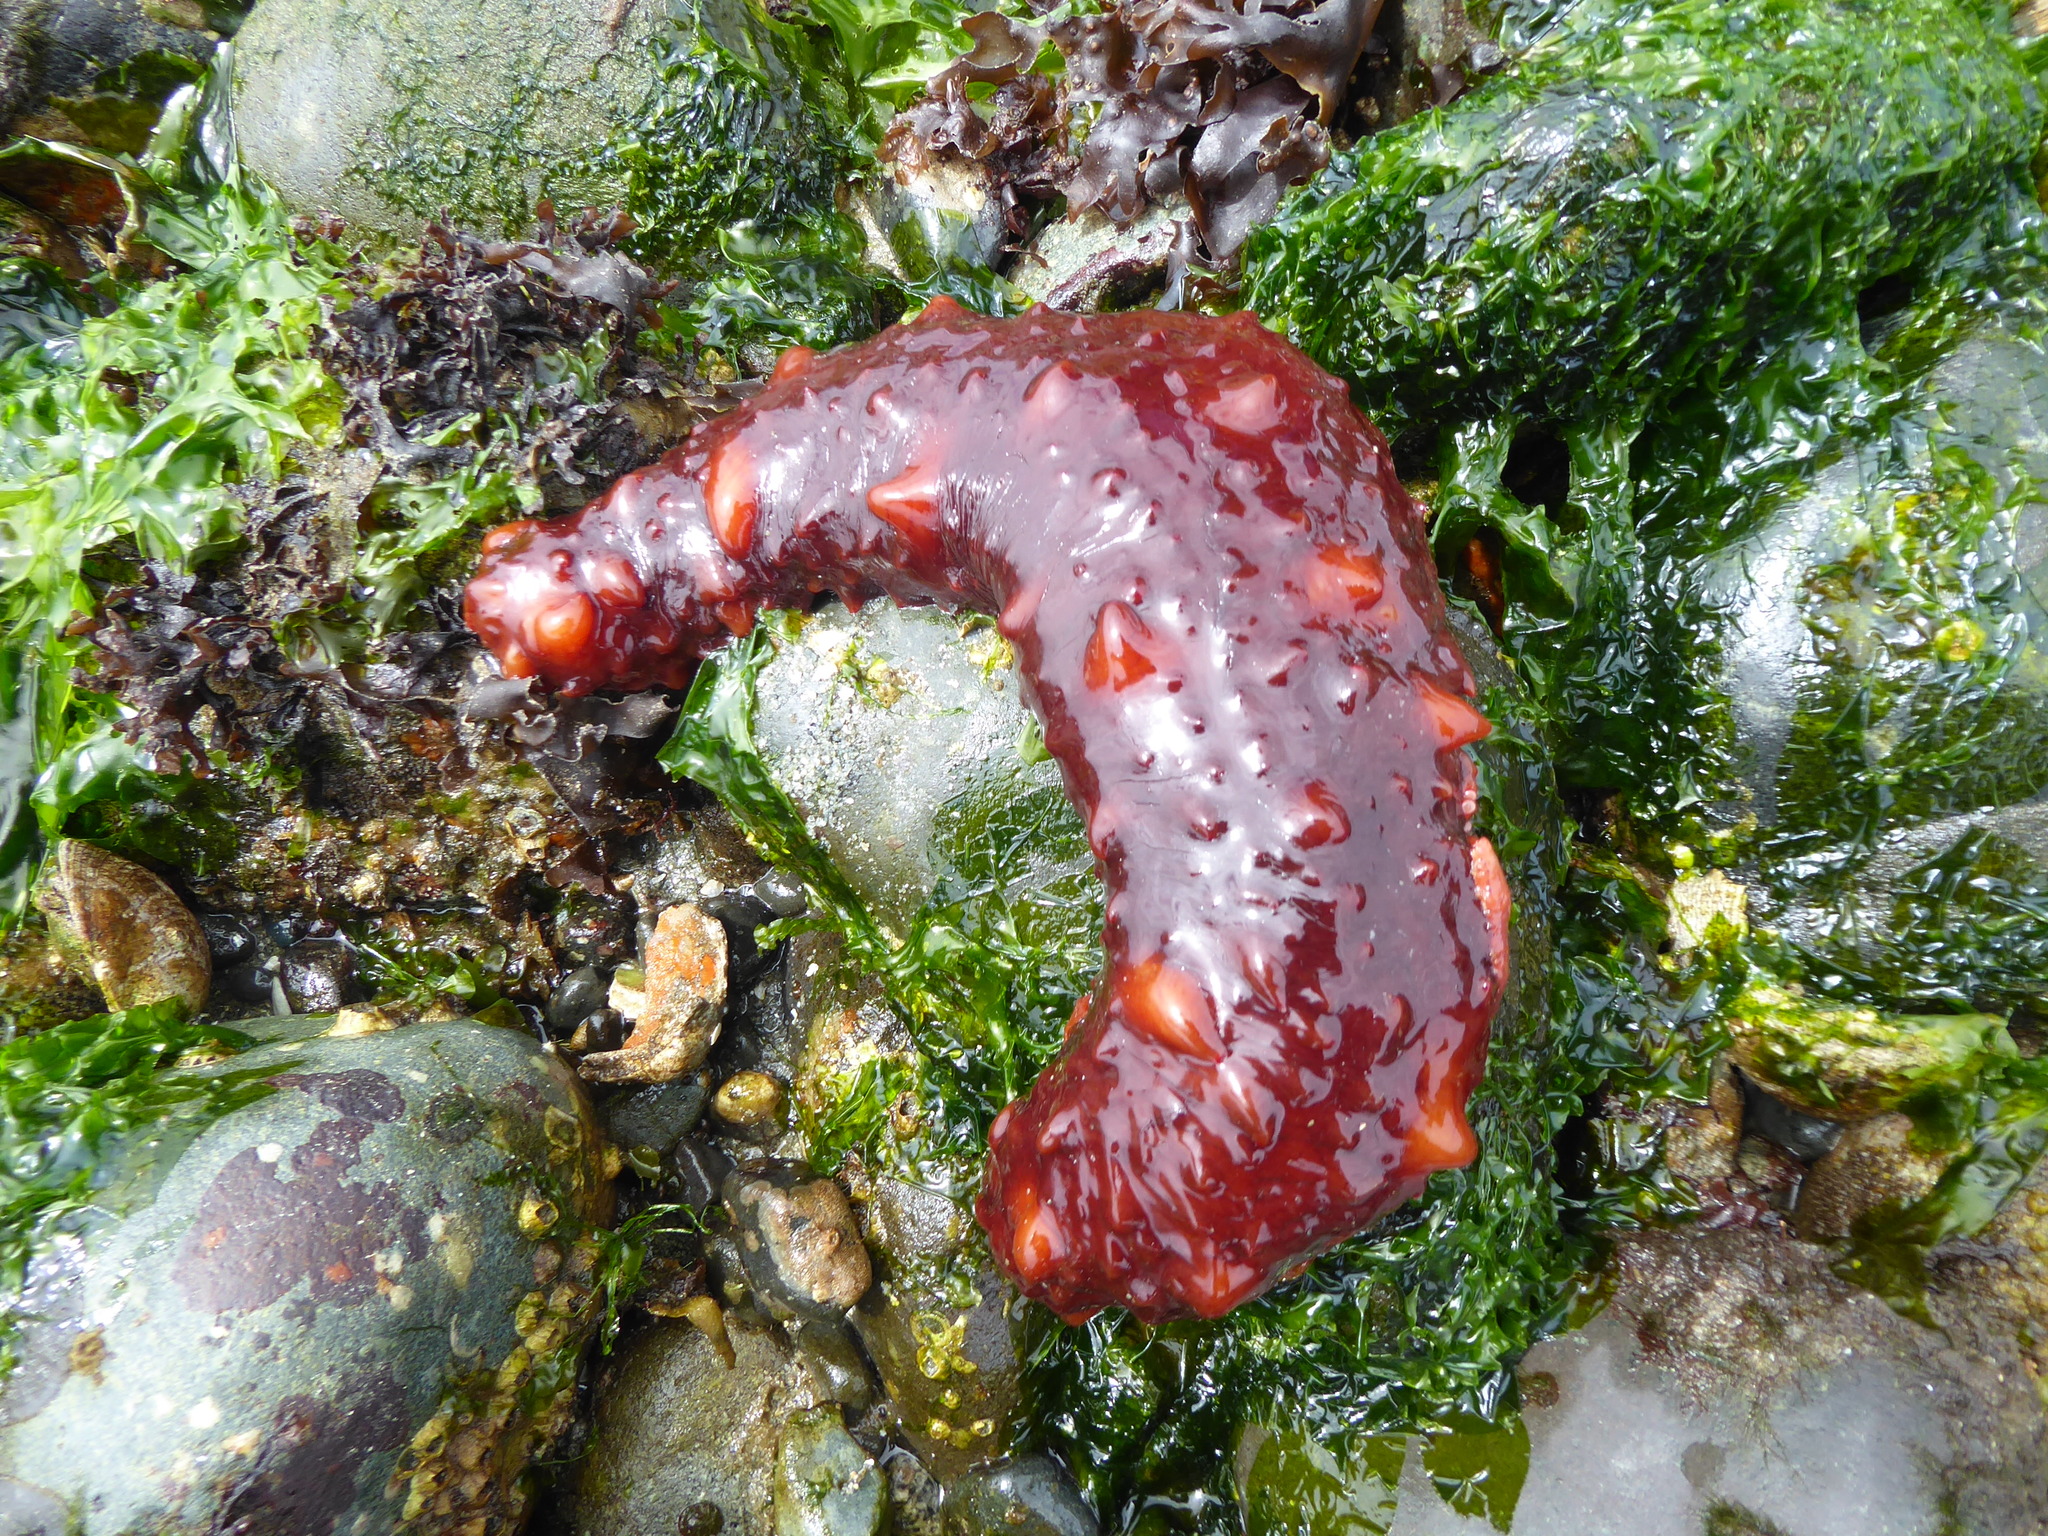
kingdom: Animalia
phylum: Echinodermata
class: Holothuroidea
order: Synallactida
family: Stichopodidae
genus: Apostichopus
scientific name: Apostichopus californicus
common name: California sea cucumber
